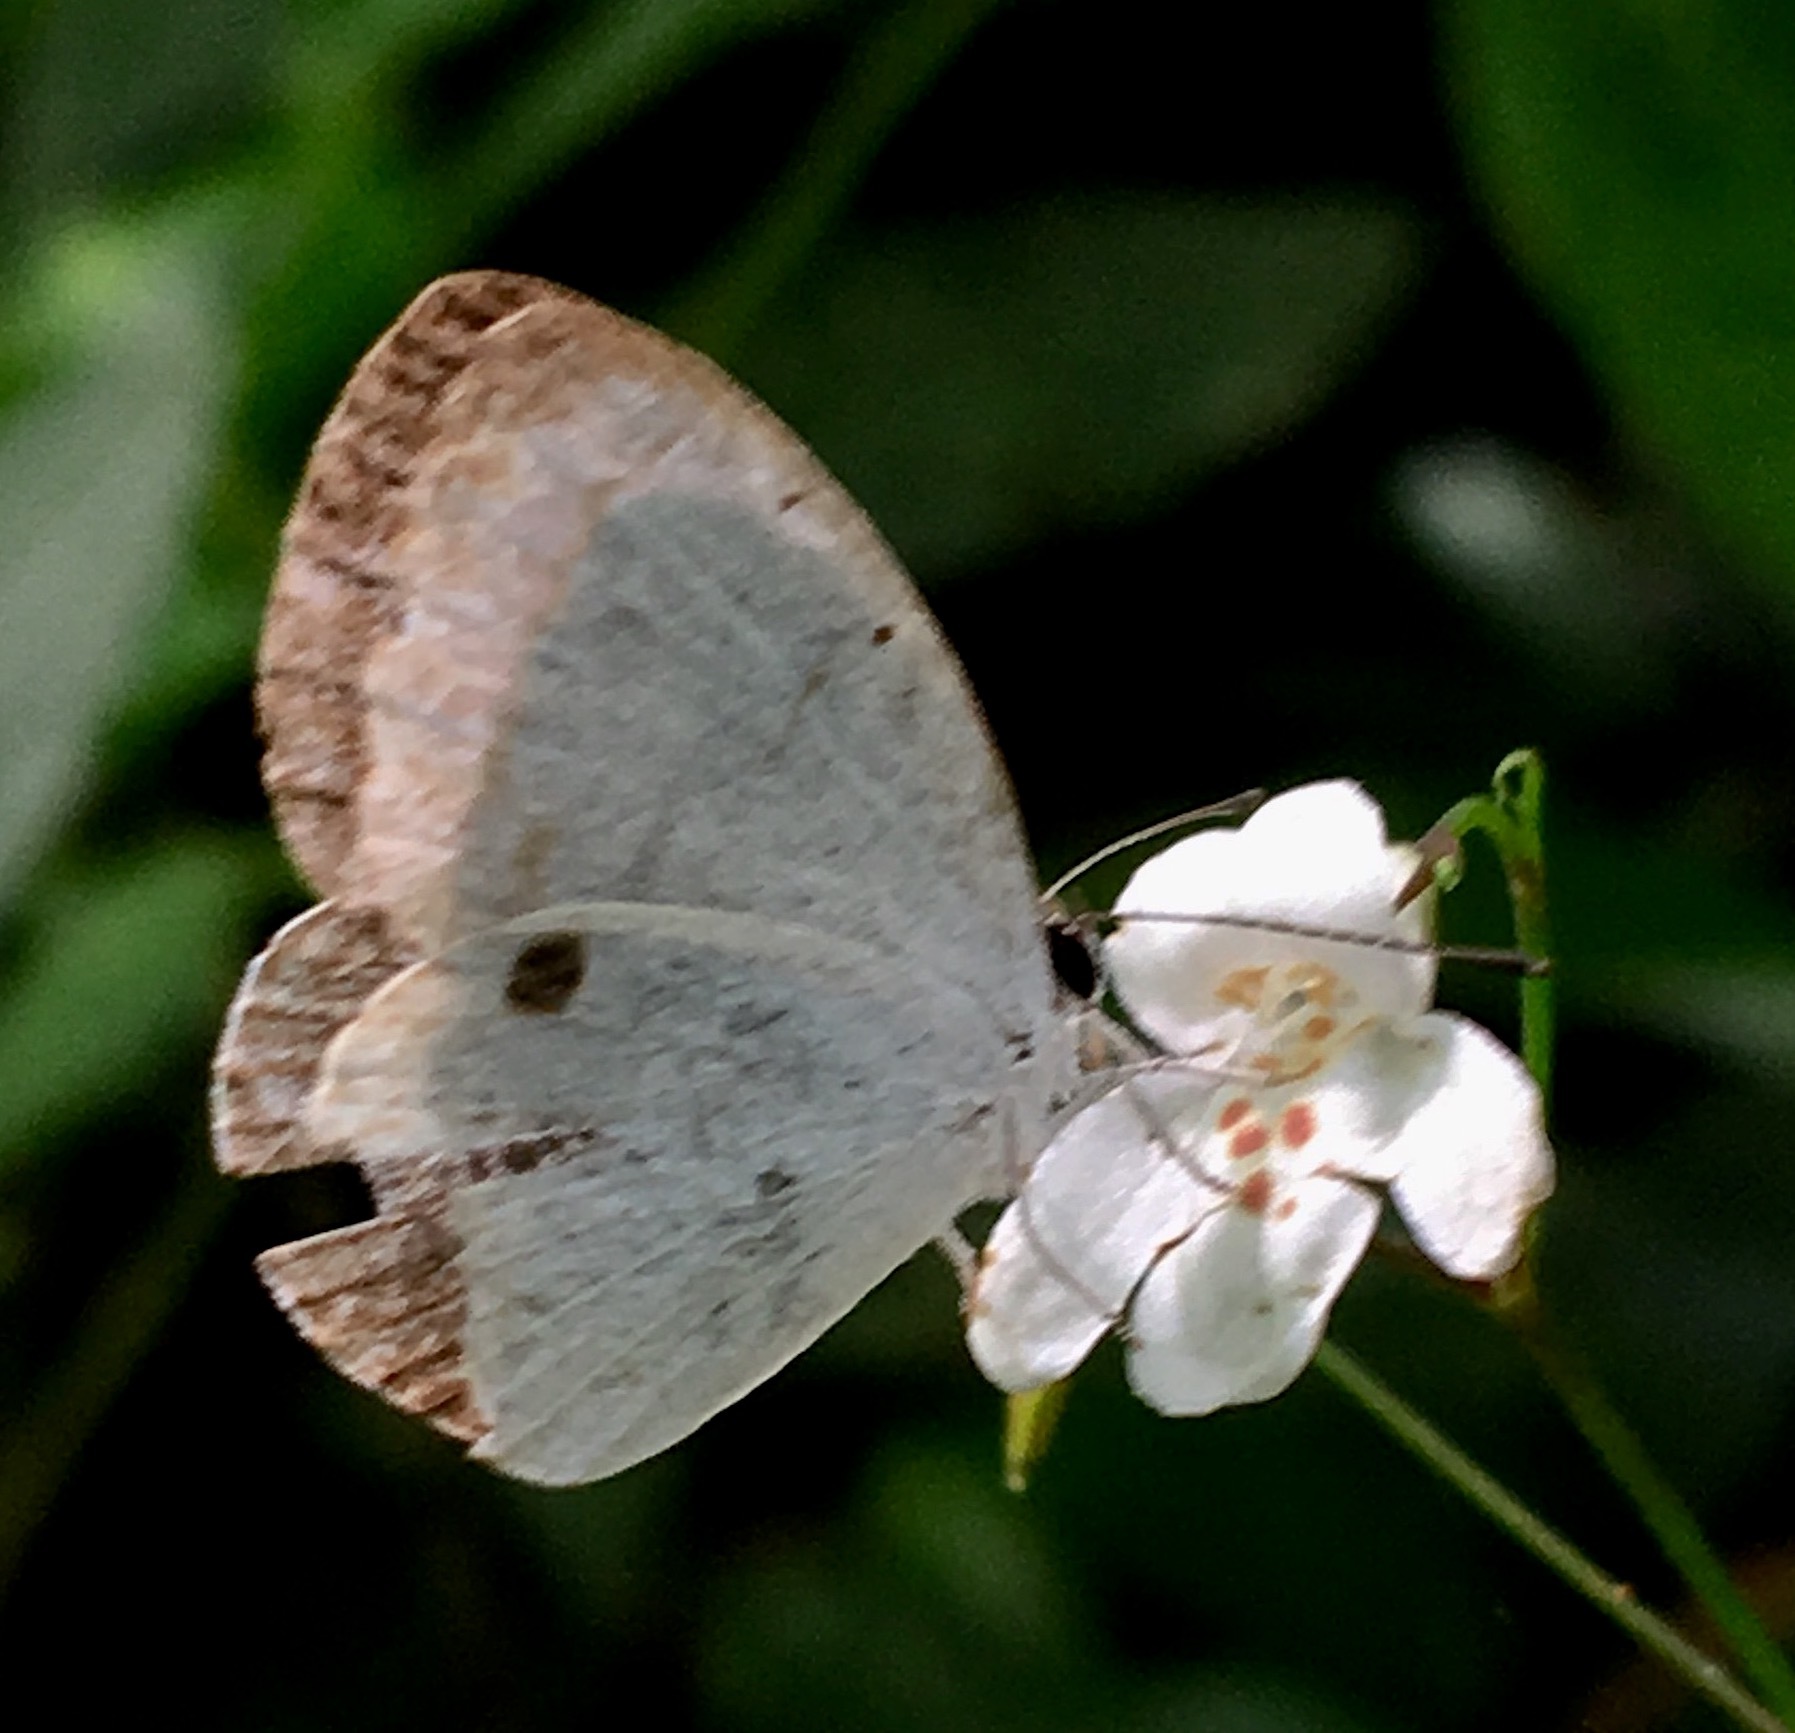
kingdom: Animalia
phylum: Arthropoda
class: Insecta
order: Lepidoptera
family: Lycaenidae
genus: Pithecops
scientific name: Pithecops corvus
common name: Forest quaker
